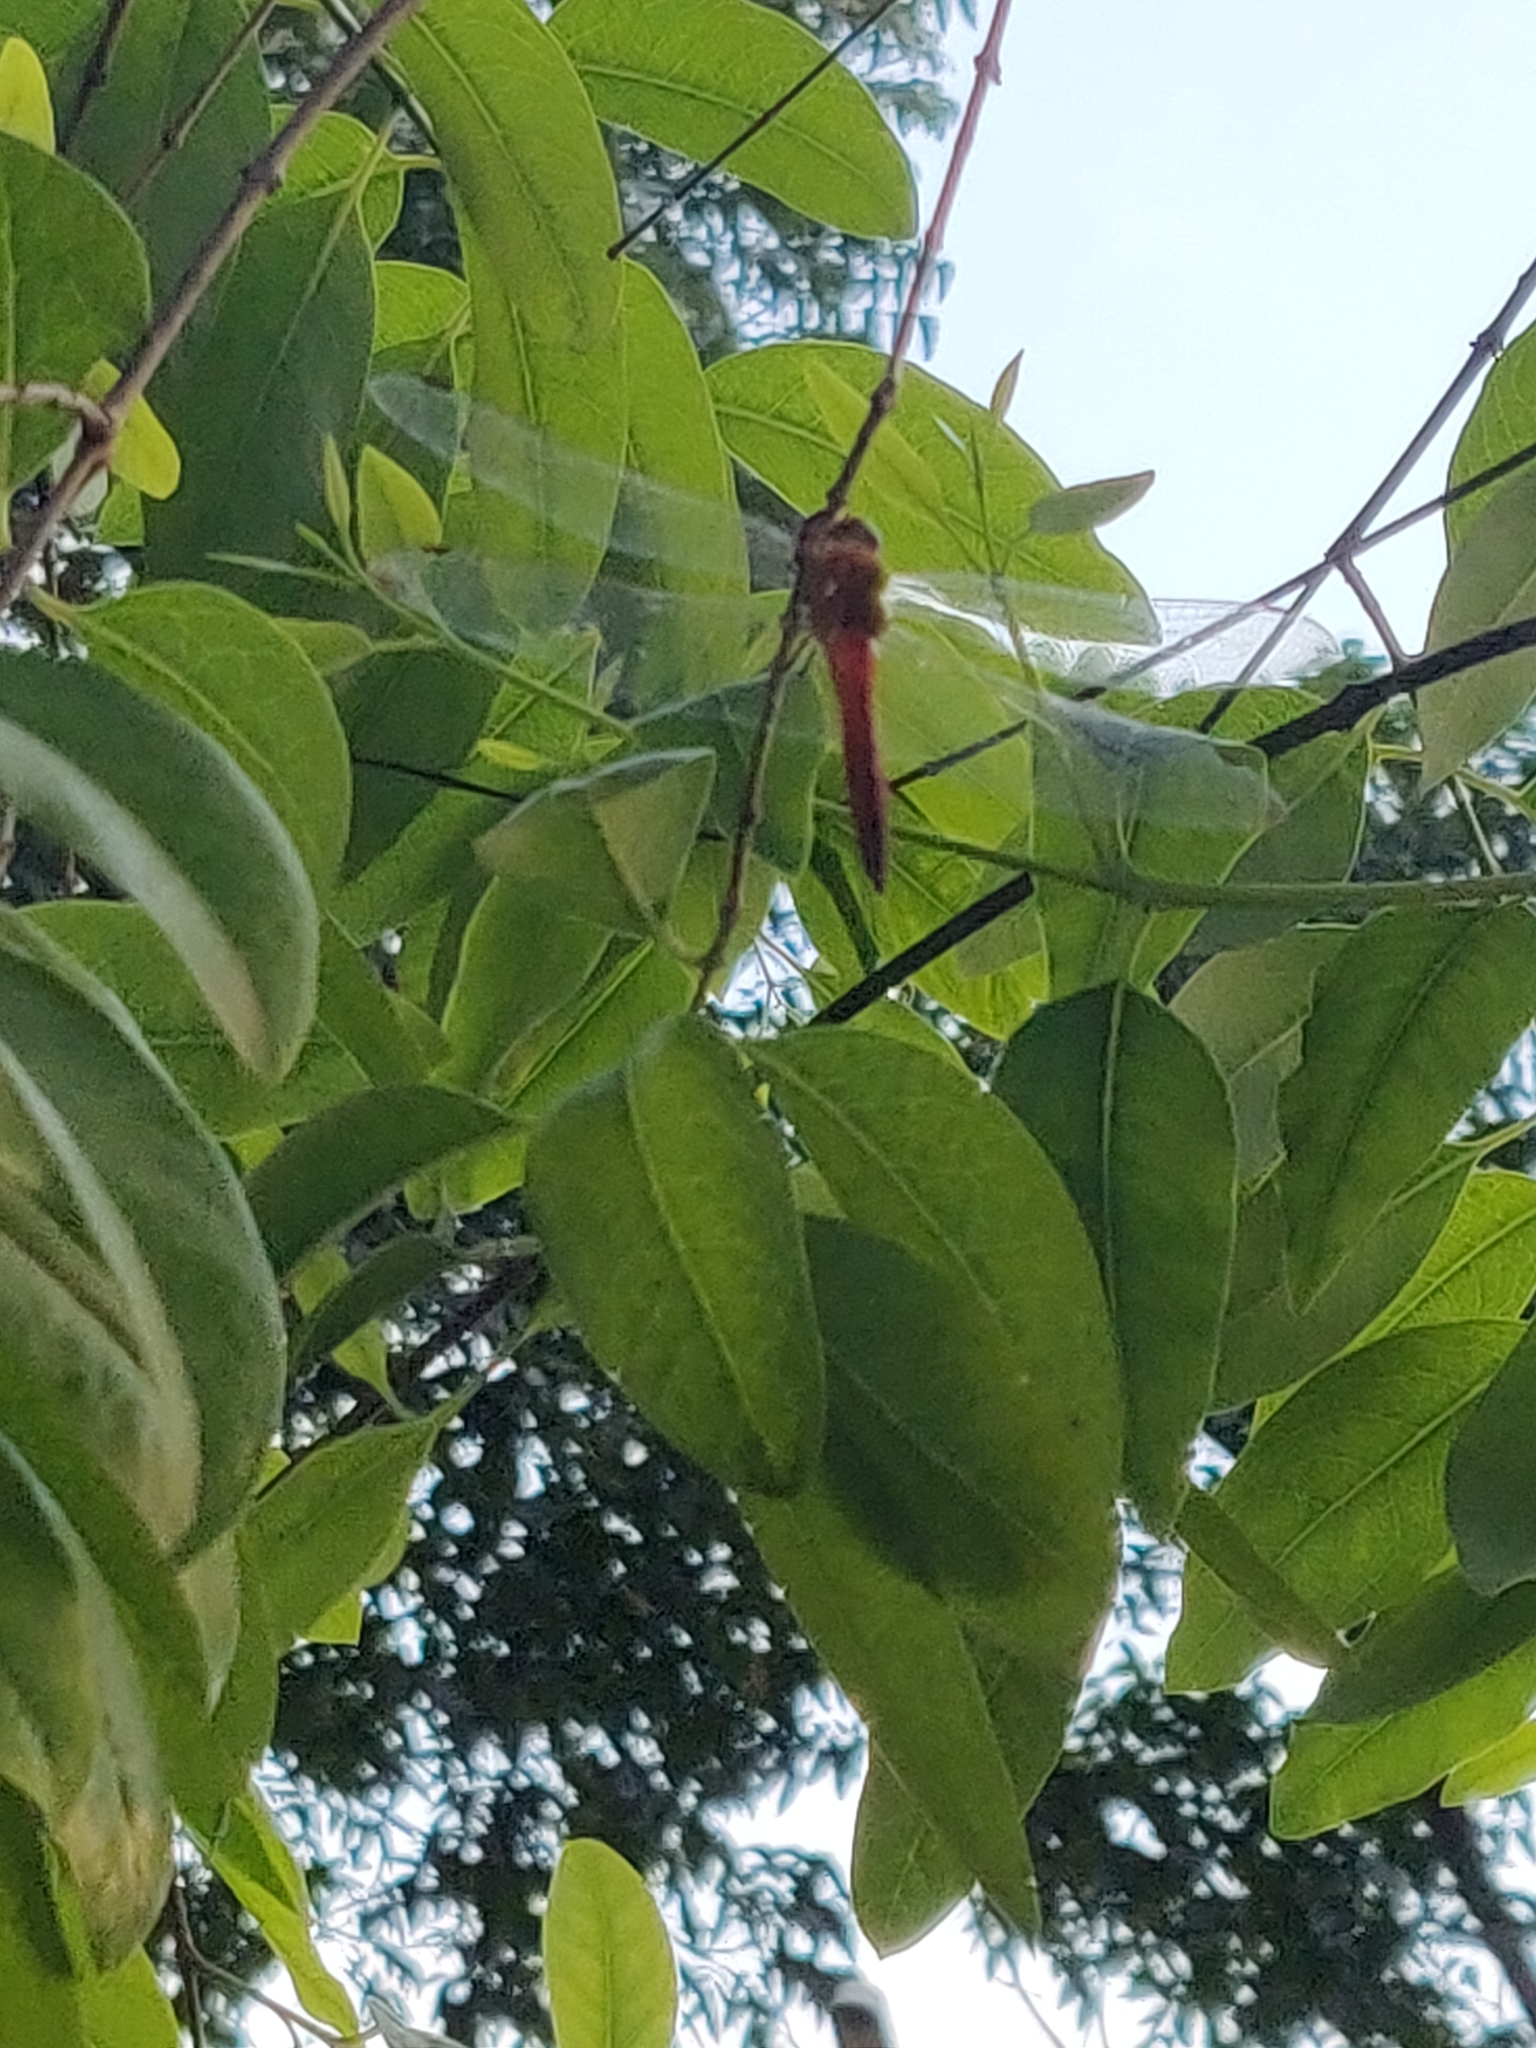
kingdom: Animalia
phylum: Arthropoda
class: Insecta
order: Odonata
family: Libellulidae
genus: Pantala
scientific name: Pantala flavescens
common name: Wandering glider
